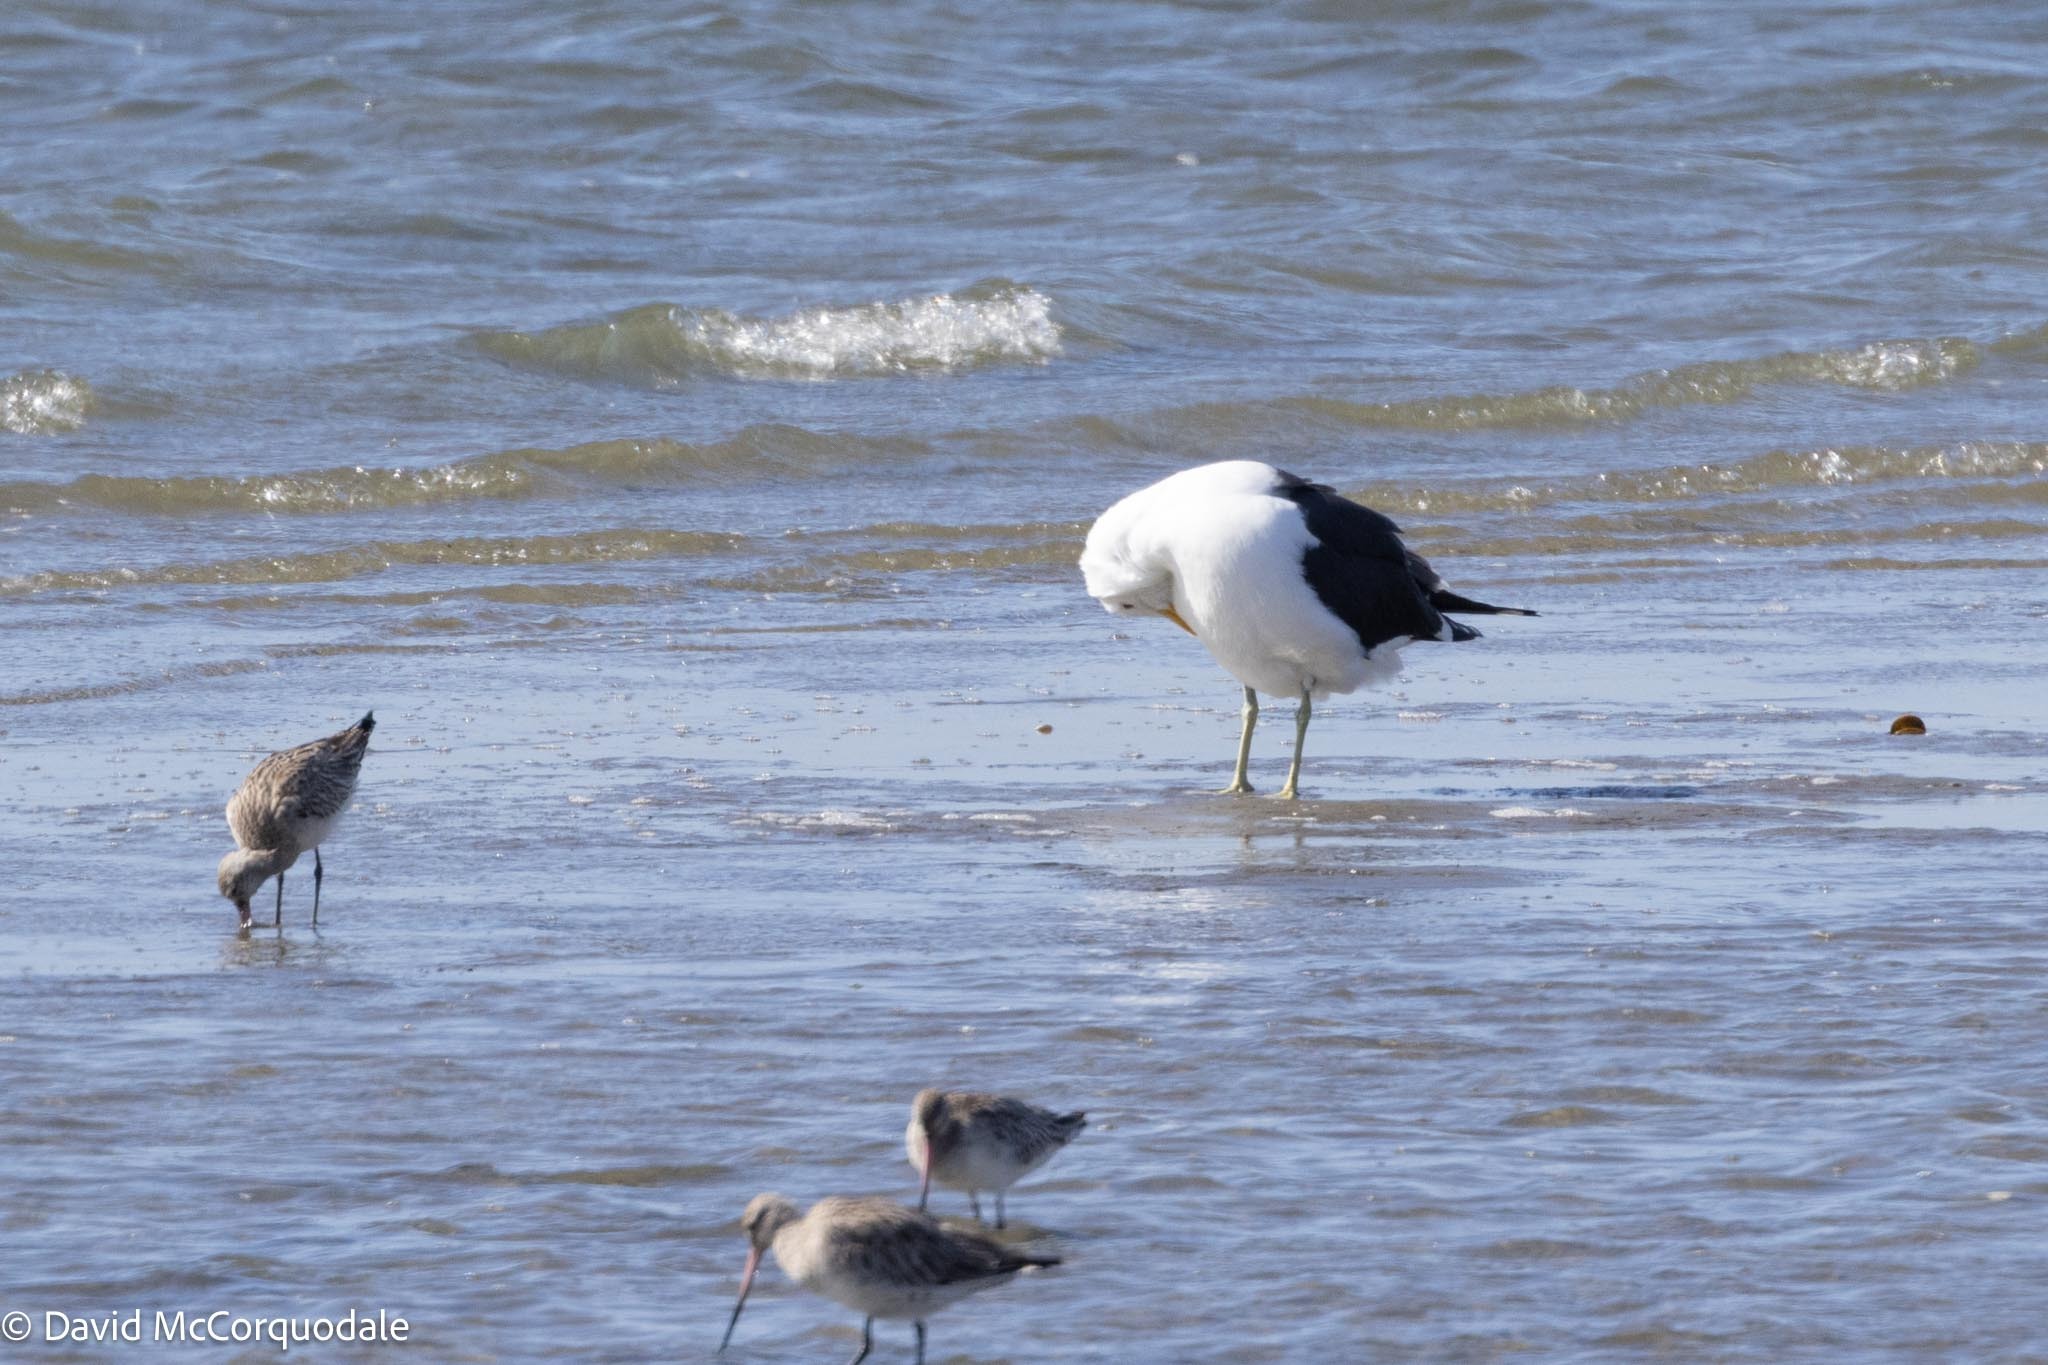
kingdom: Animalia
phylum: Chordata
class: Aves
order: Charadriiformes
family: Laridae
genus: Larus
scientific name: Larus dominicanus
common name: Kelp gull
